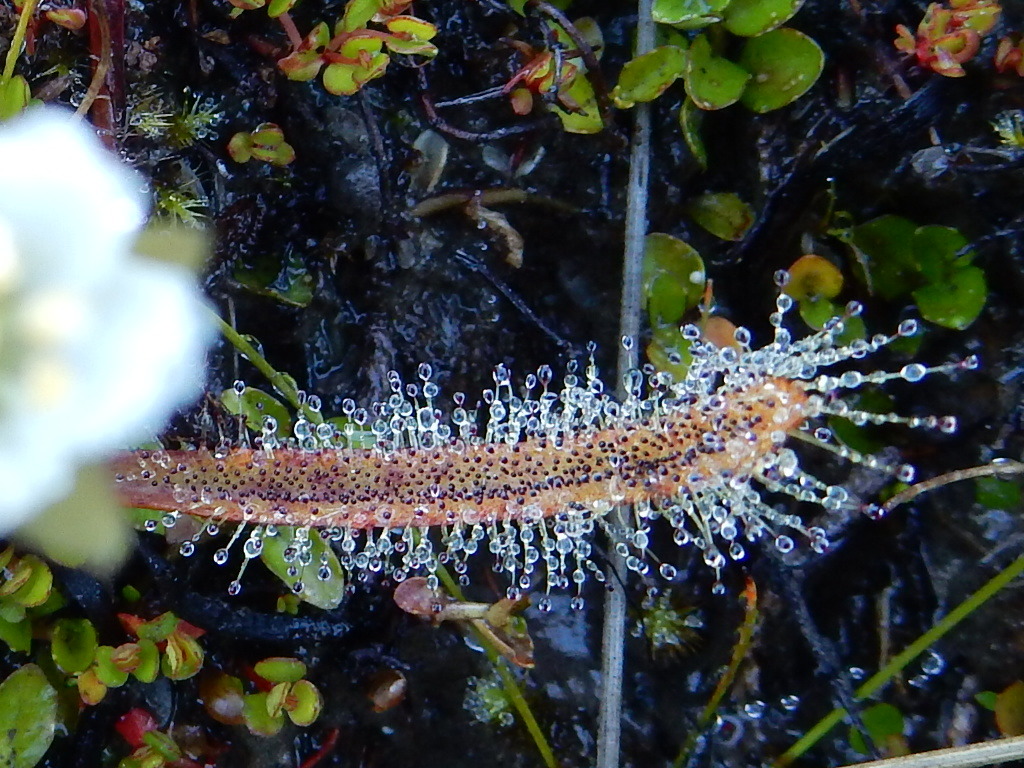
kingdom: Plantae
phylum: Tracheophyta
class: Magnoliopsida
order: Caryophyllales
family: Droseraceae
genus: Drosera
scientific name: Drosera arcturi
